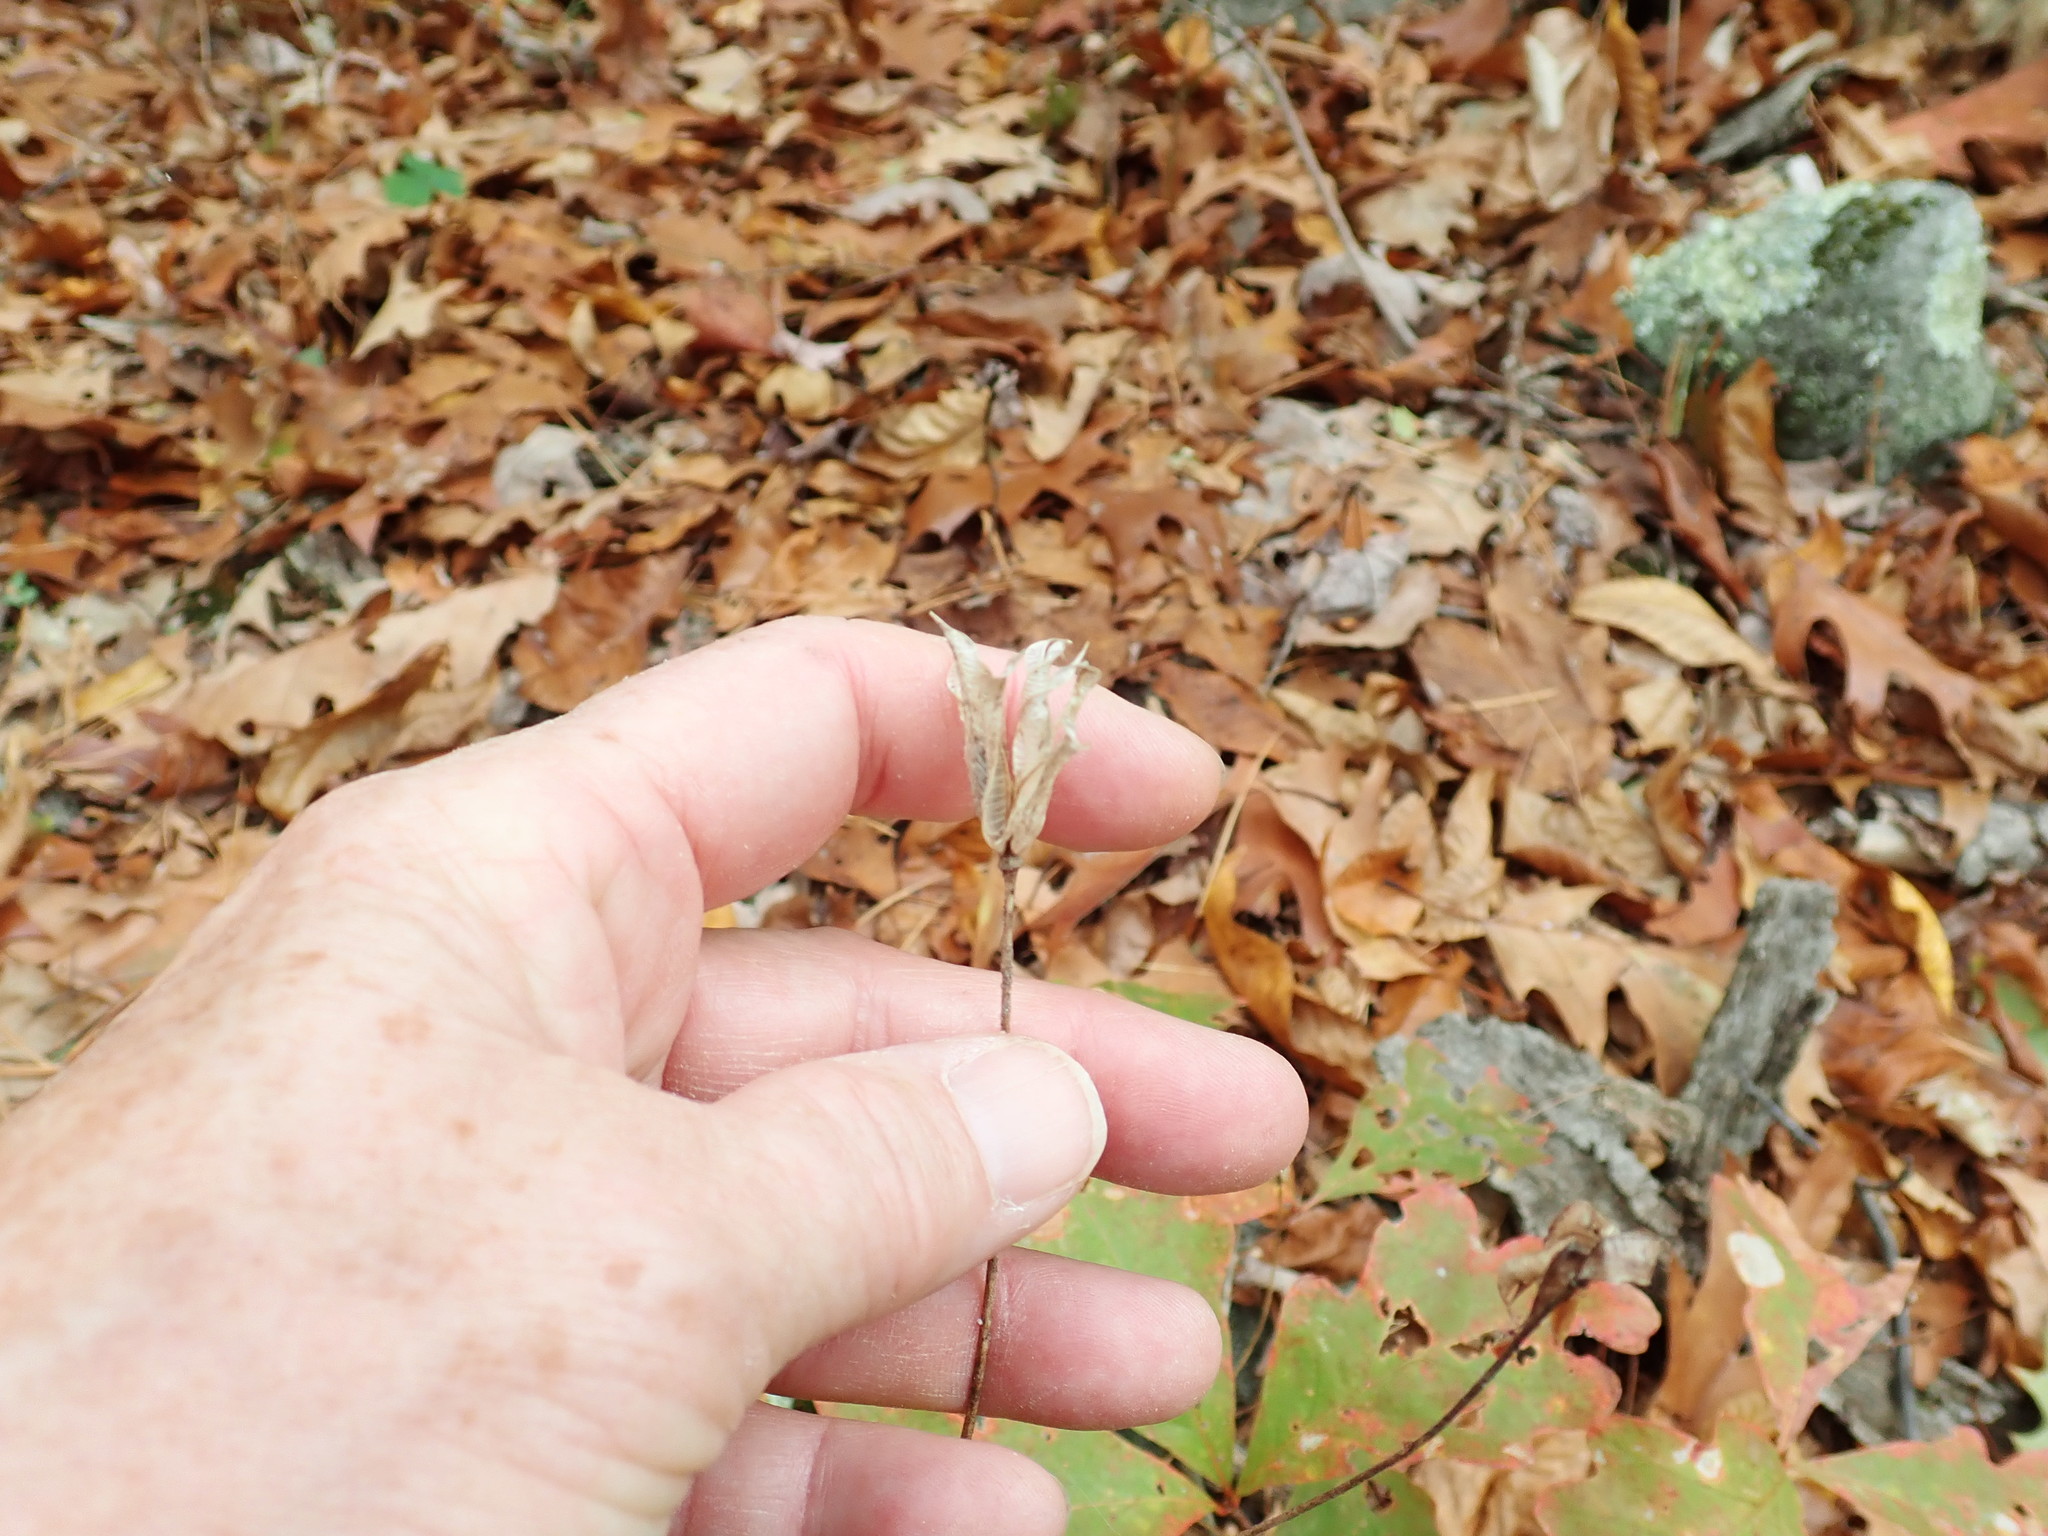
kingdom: Plantae
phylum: Tracheophyta
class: Magnoliopsida
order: Ranunculales
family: Ranunculaceae
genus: Aquilegia
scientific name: Aquilegia canadensis
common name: American columbine
